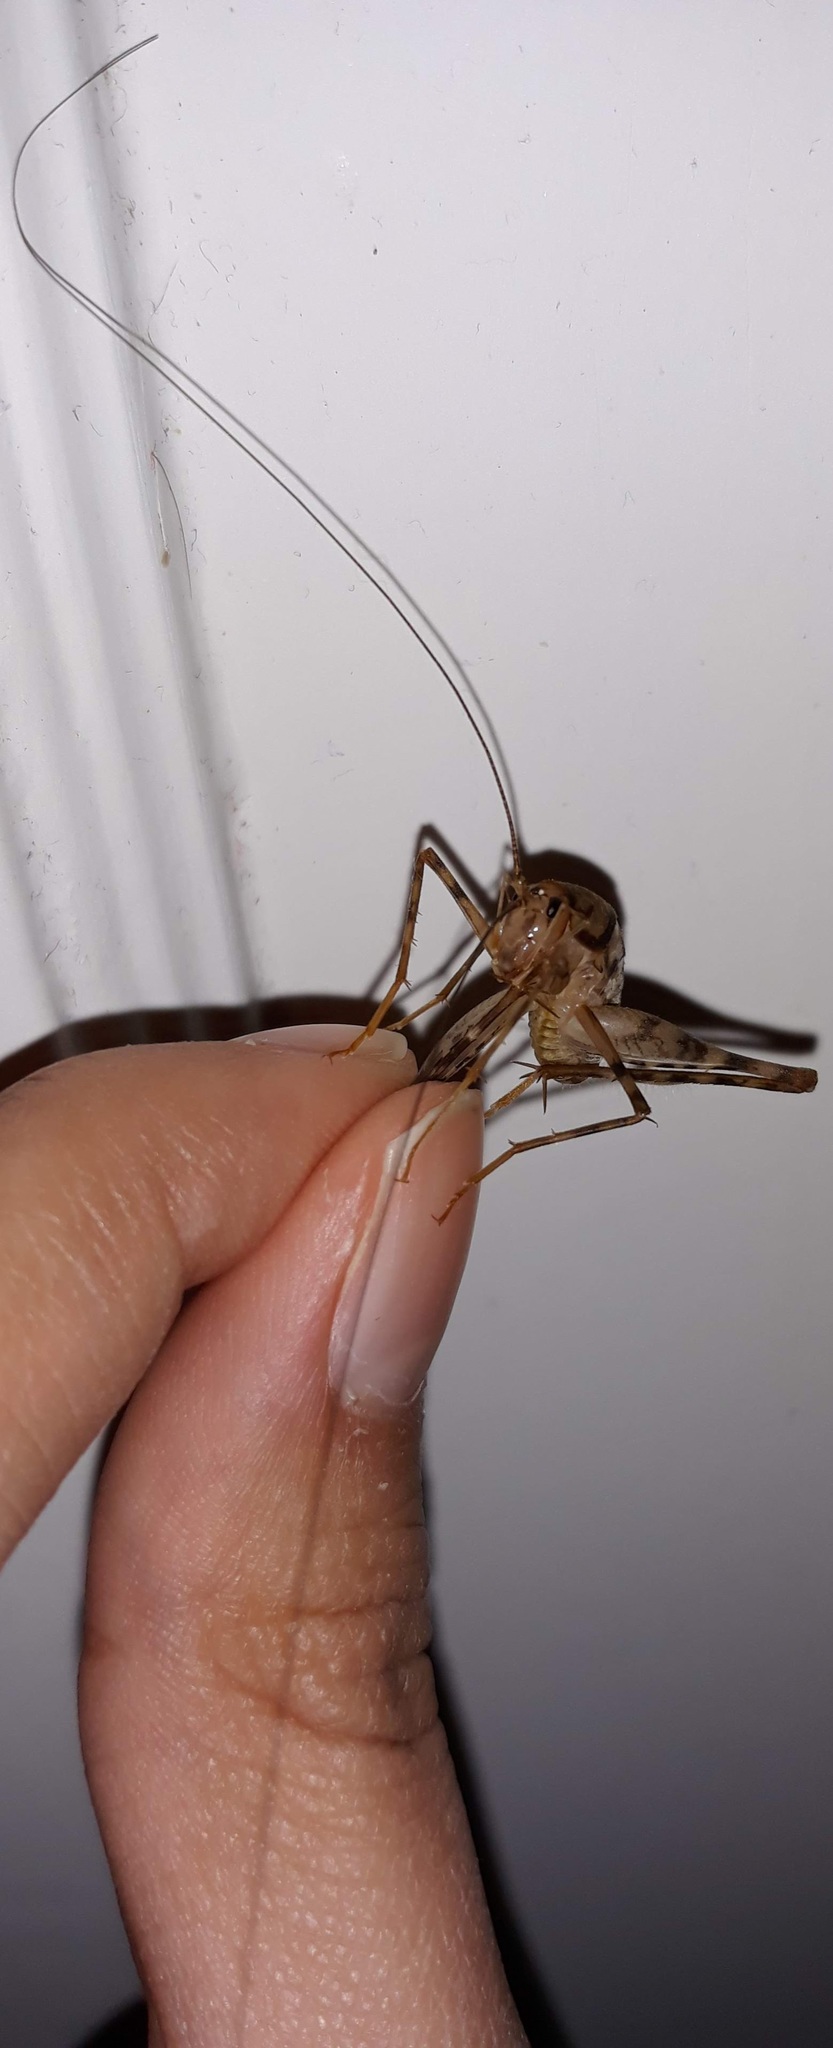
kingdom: Animalia
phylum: Arthropoda
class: Insecta
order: Orthoptera
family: Rhaphidophoridae
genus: Tachycines
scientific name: Tachycines asynamorus
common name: Greenhouse camel cricket
